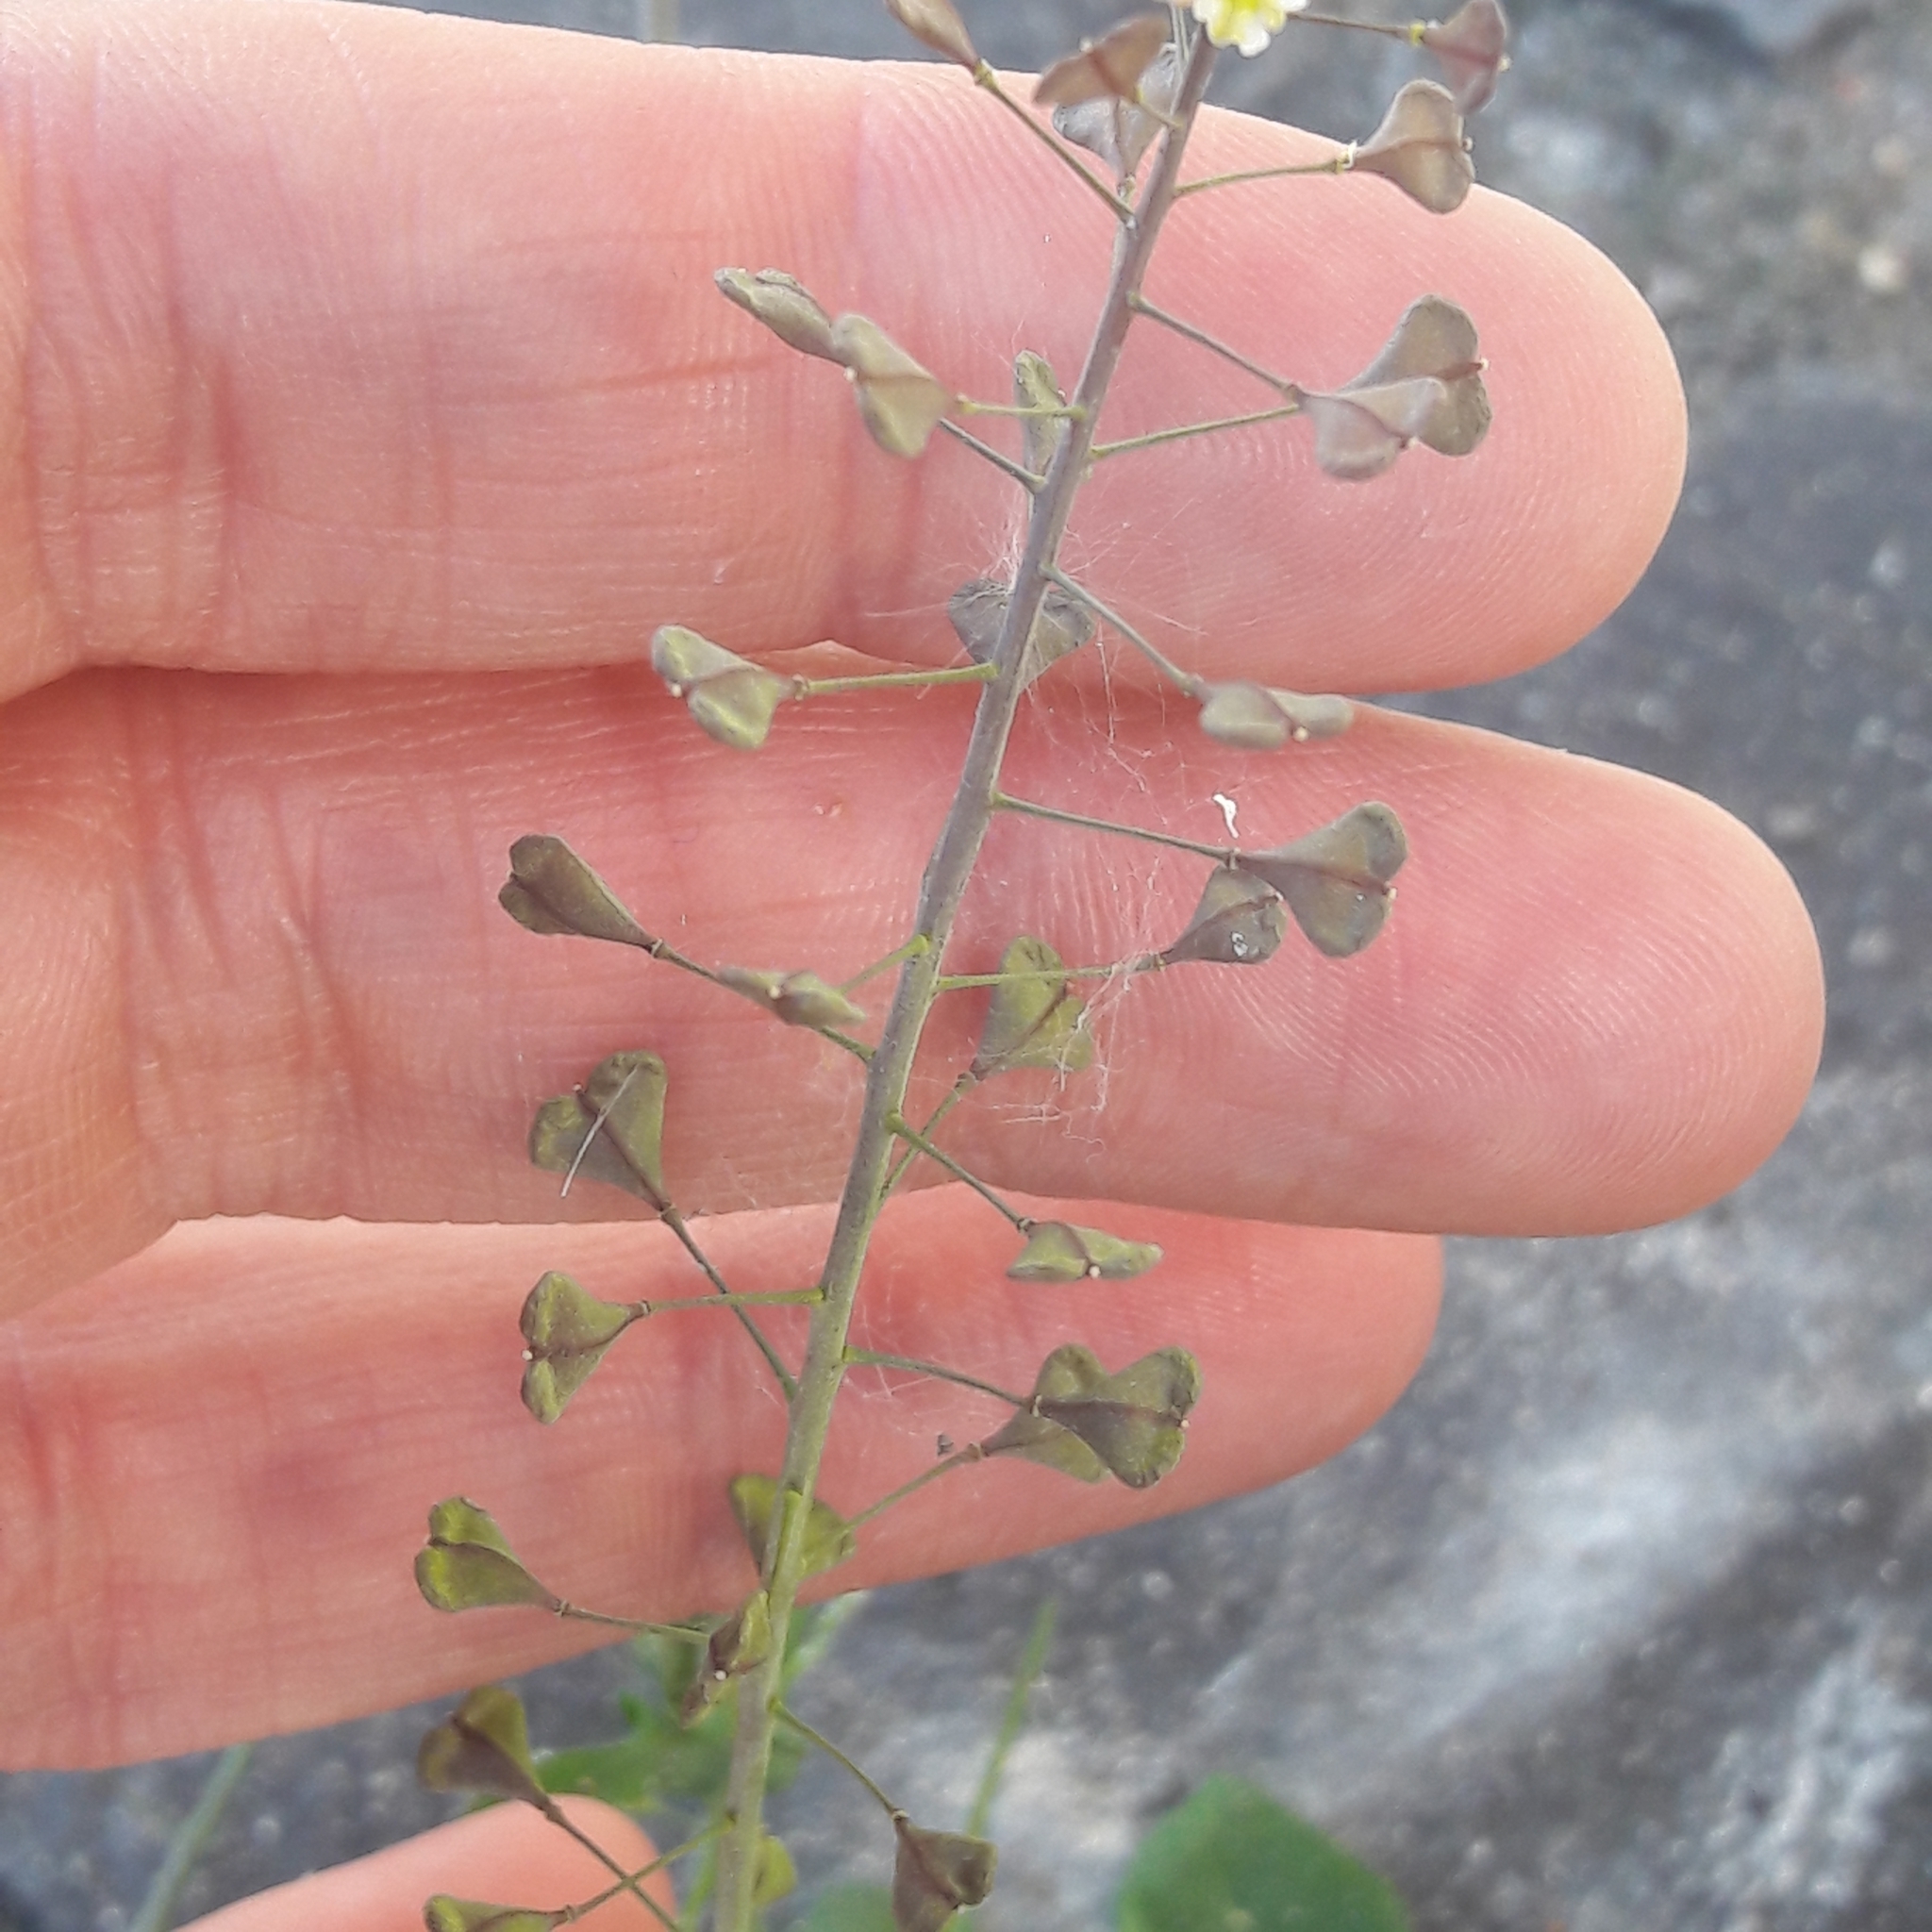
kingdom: Plantae
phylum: Tracheophyta
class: Magnoliopsida
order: Brassicales
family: Brassicaceae
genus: Capsella
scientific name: Capsella bursa-pastoris
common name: Shepherd's purse
